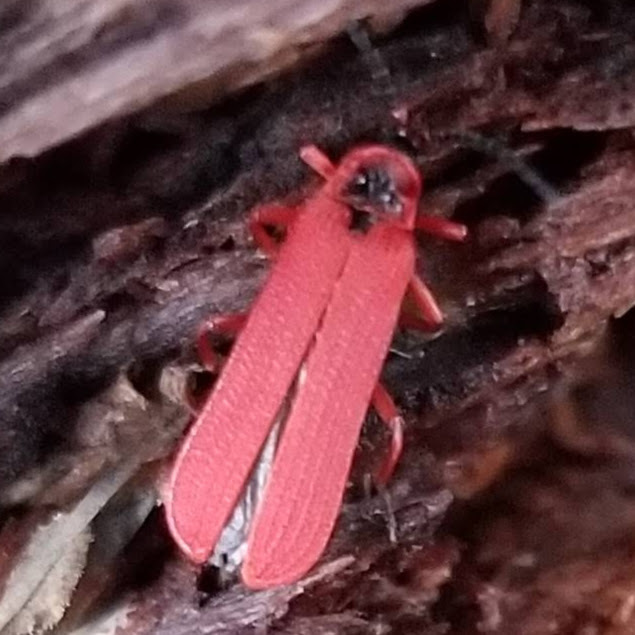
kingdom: Animalia
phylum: Arthropoda
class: Insecta
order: Coleoptera
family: Lycidae
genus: Dictyoptera
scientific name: Dictyoptera simplicipes
